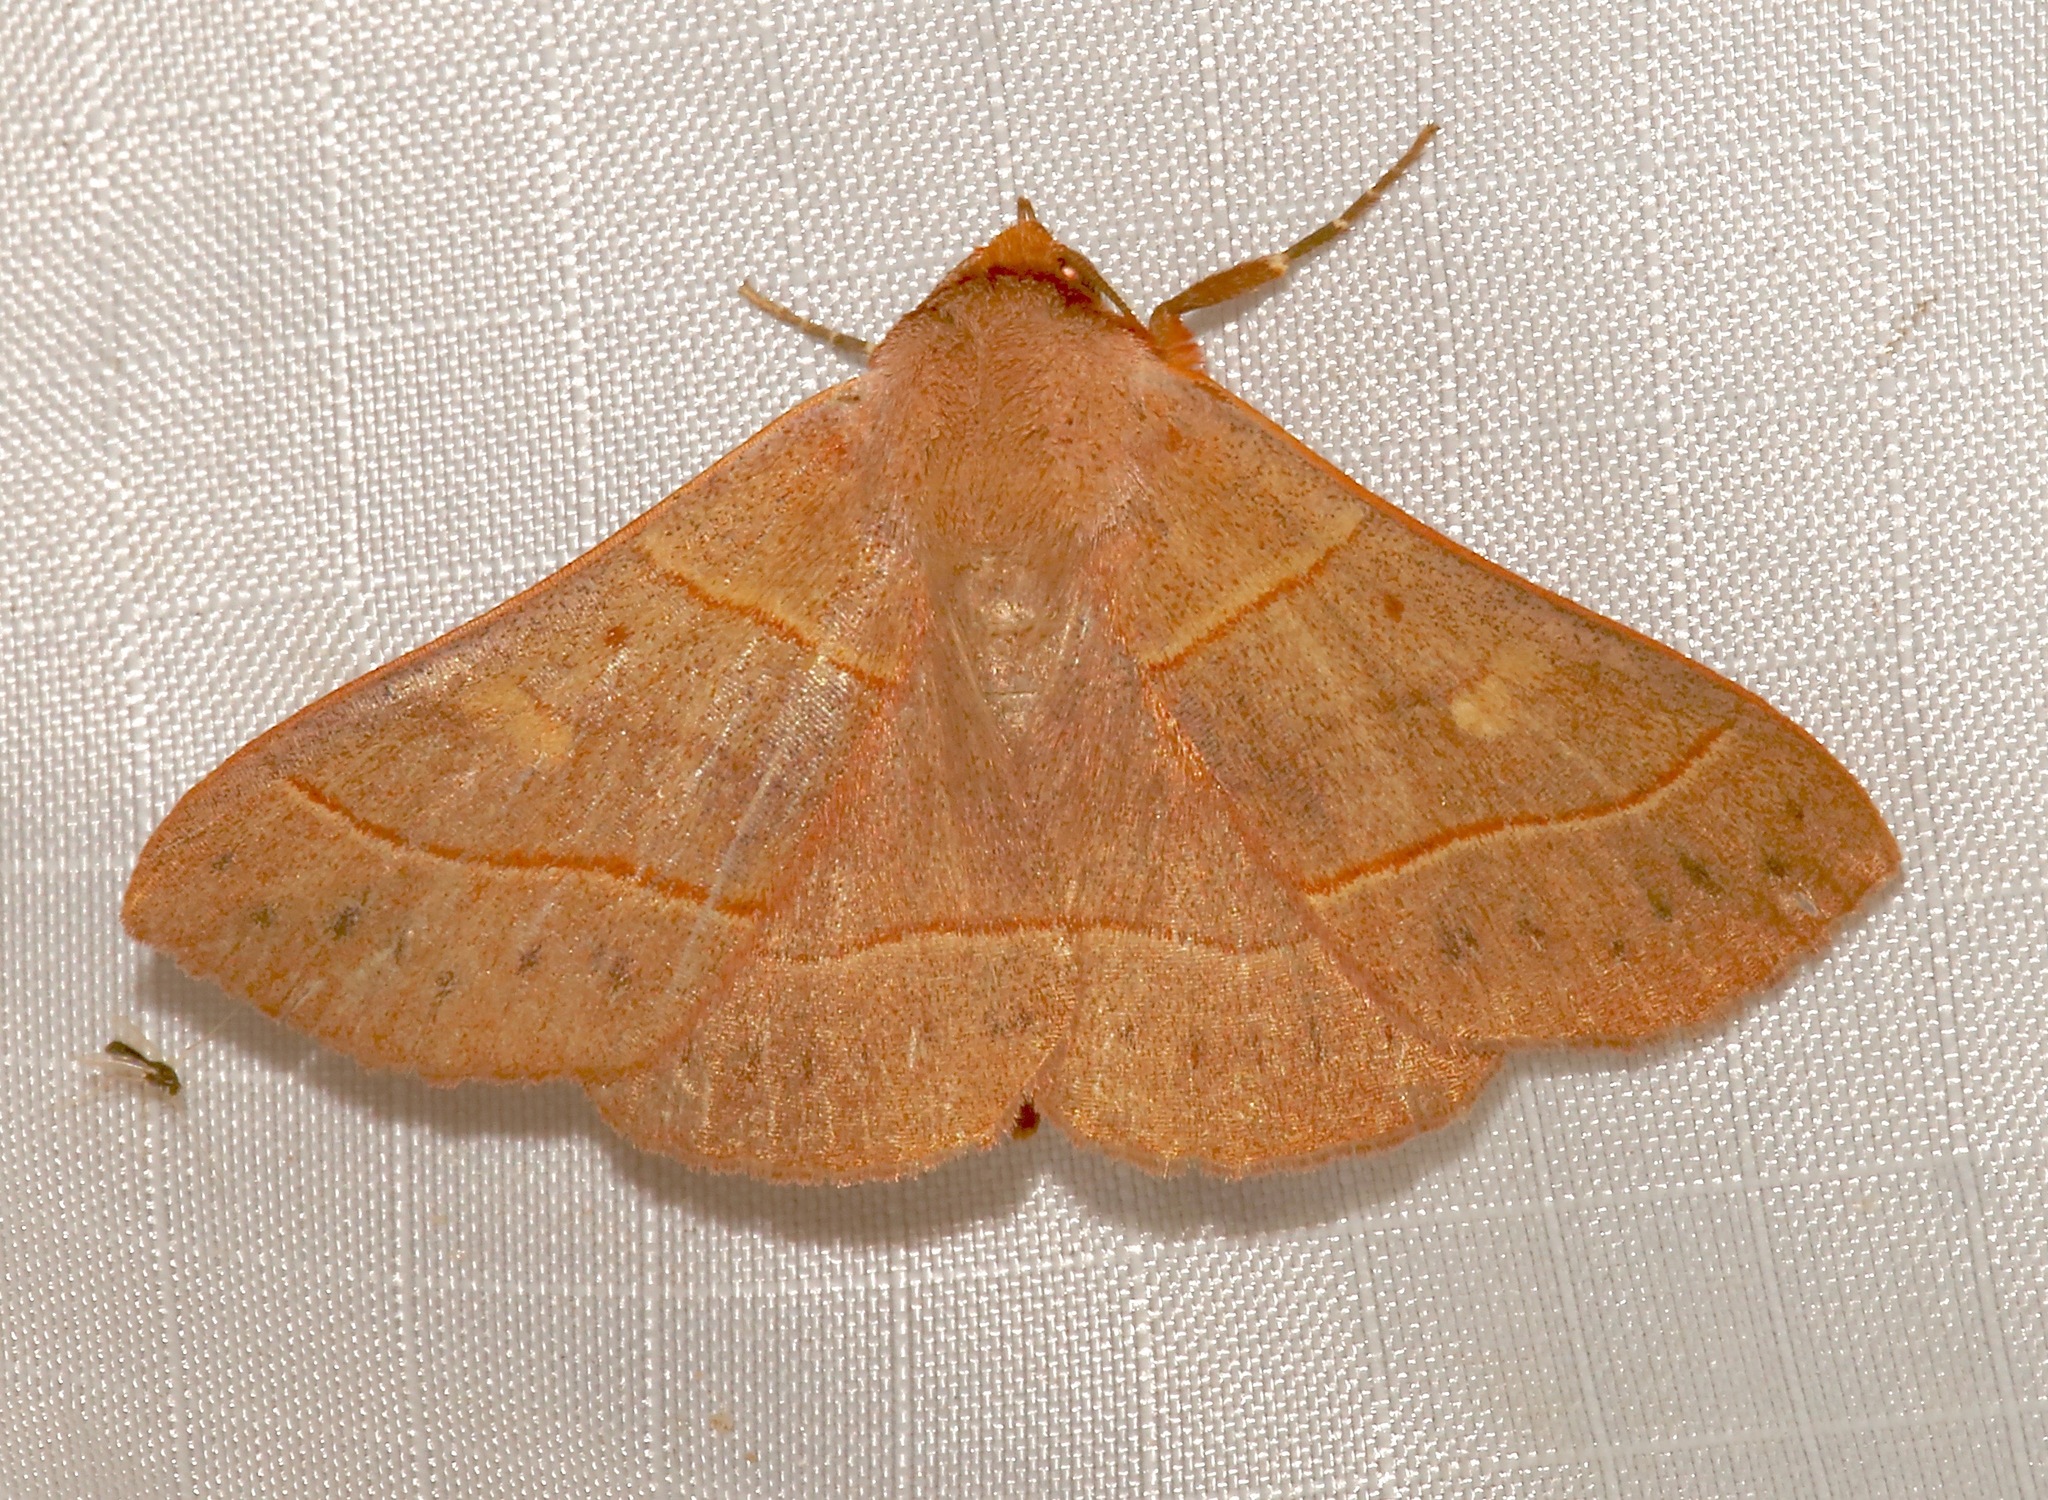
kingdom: Animalia
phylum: Arthropoda
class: Insecta
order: Lepidoptera
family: Erebidae
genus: Panopoda
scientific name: Panopoda rufimargo
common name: Red-lined panopoda moth
